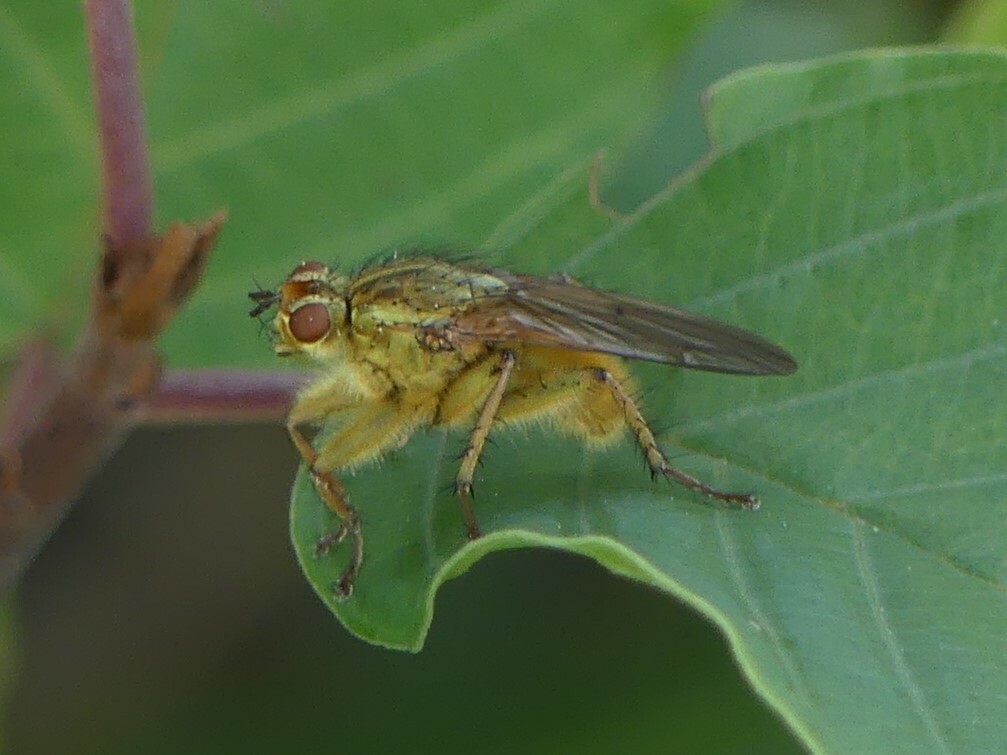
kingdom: Animalia
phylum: Arthropoda
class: Insecta
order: Diptera
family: Scathophagidae
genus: Scathophaga
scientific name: Scathophaga stercoraria
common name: Yellow dung fly
